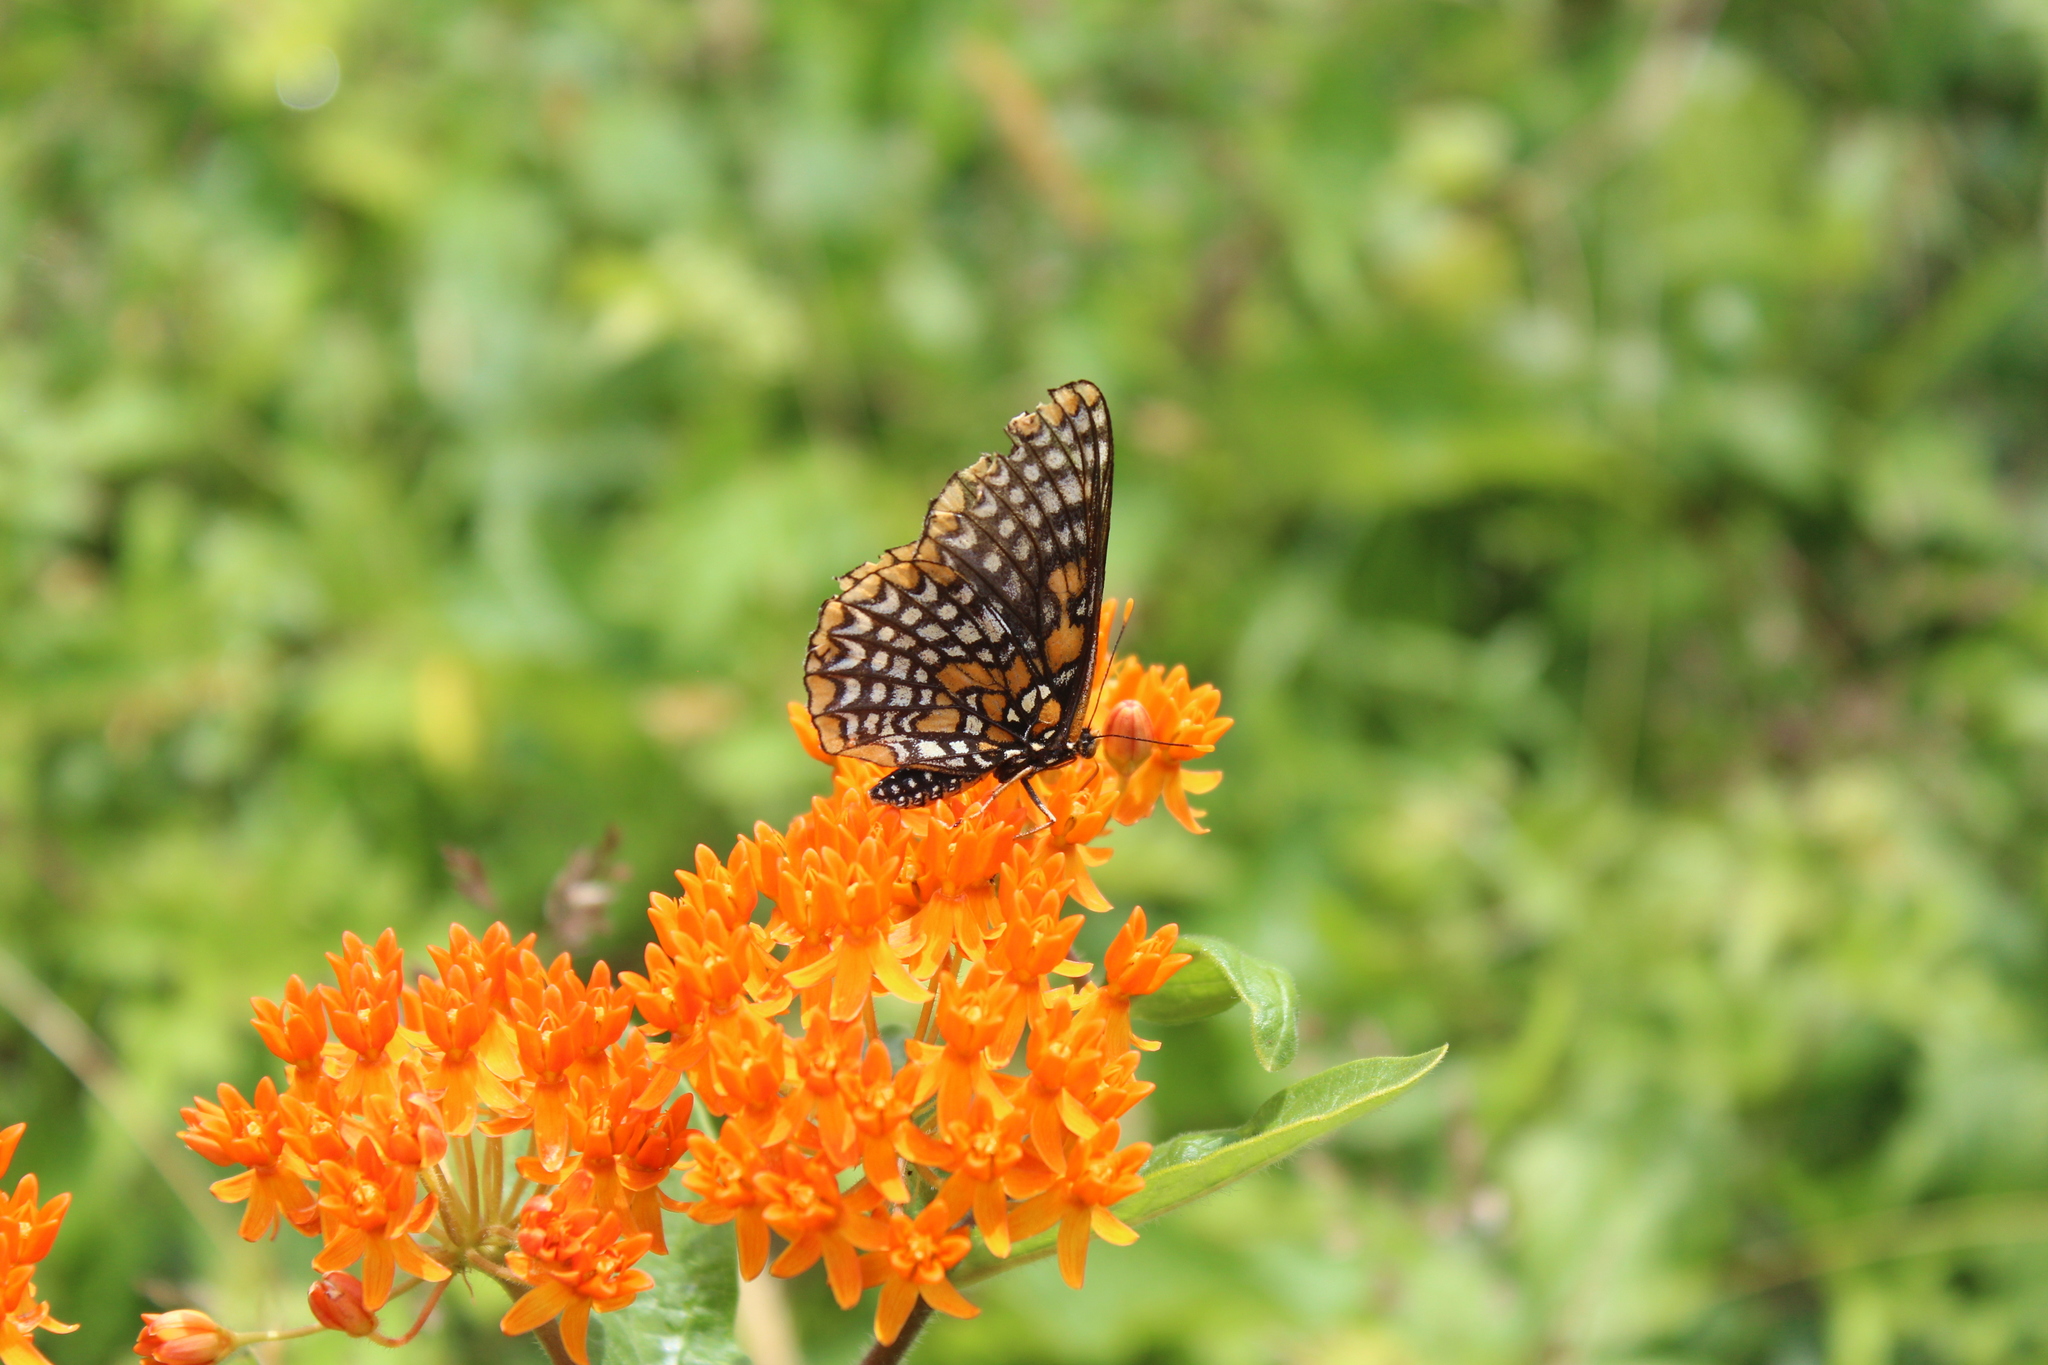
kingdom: Animalia
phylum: Arthropoda
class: Insecta
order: Lepidoptera
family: Nymphalidae
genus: Euphydryas
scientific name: Euphydryas phaeton
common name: Baltimore checkerspot
